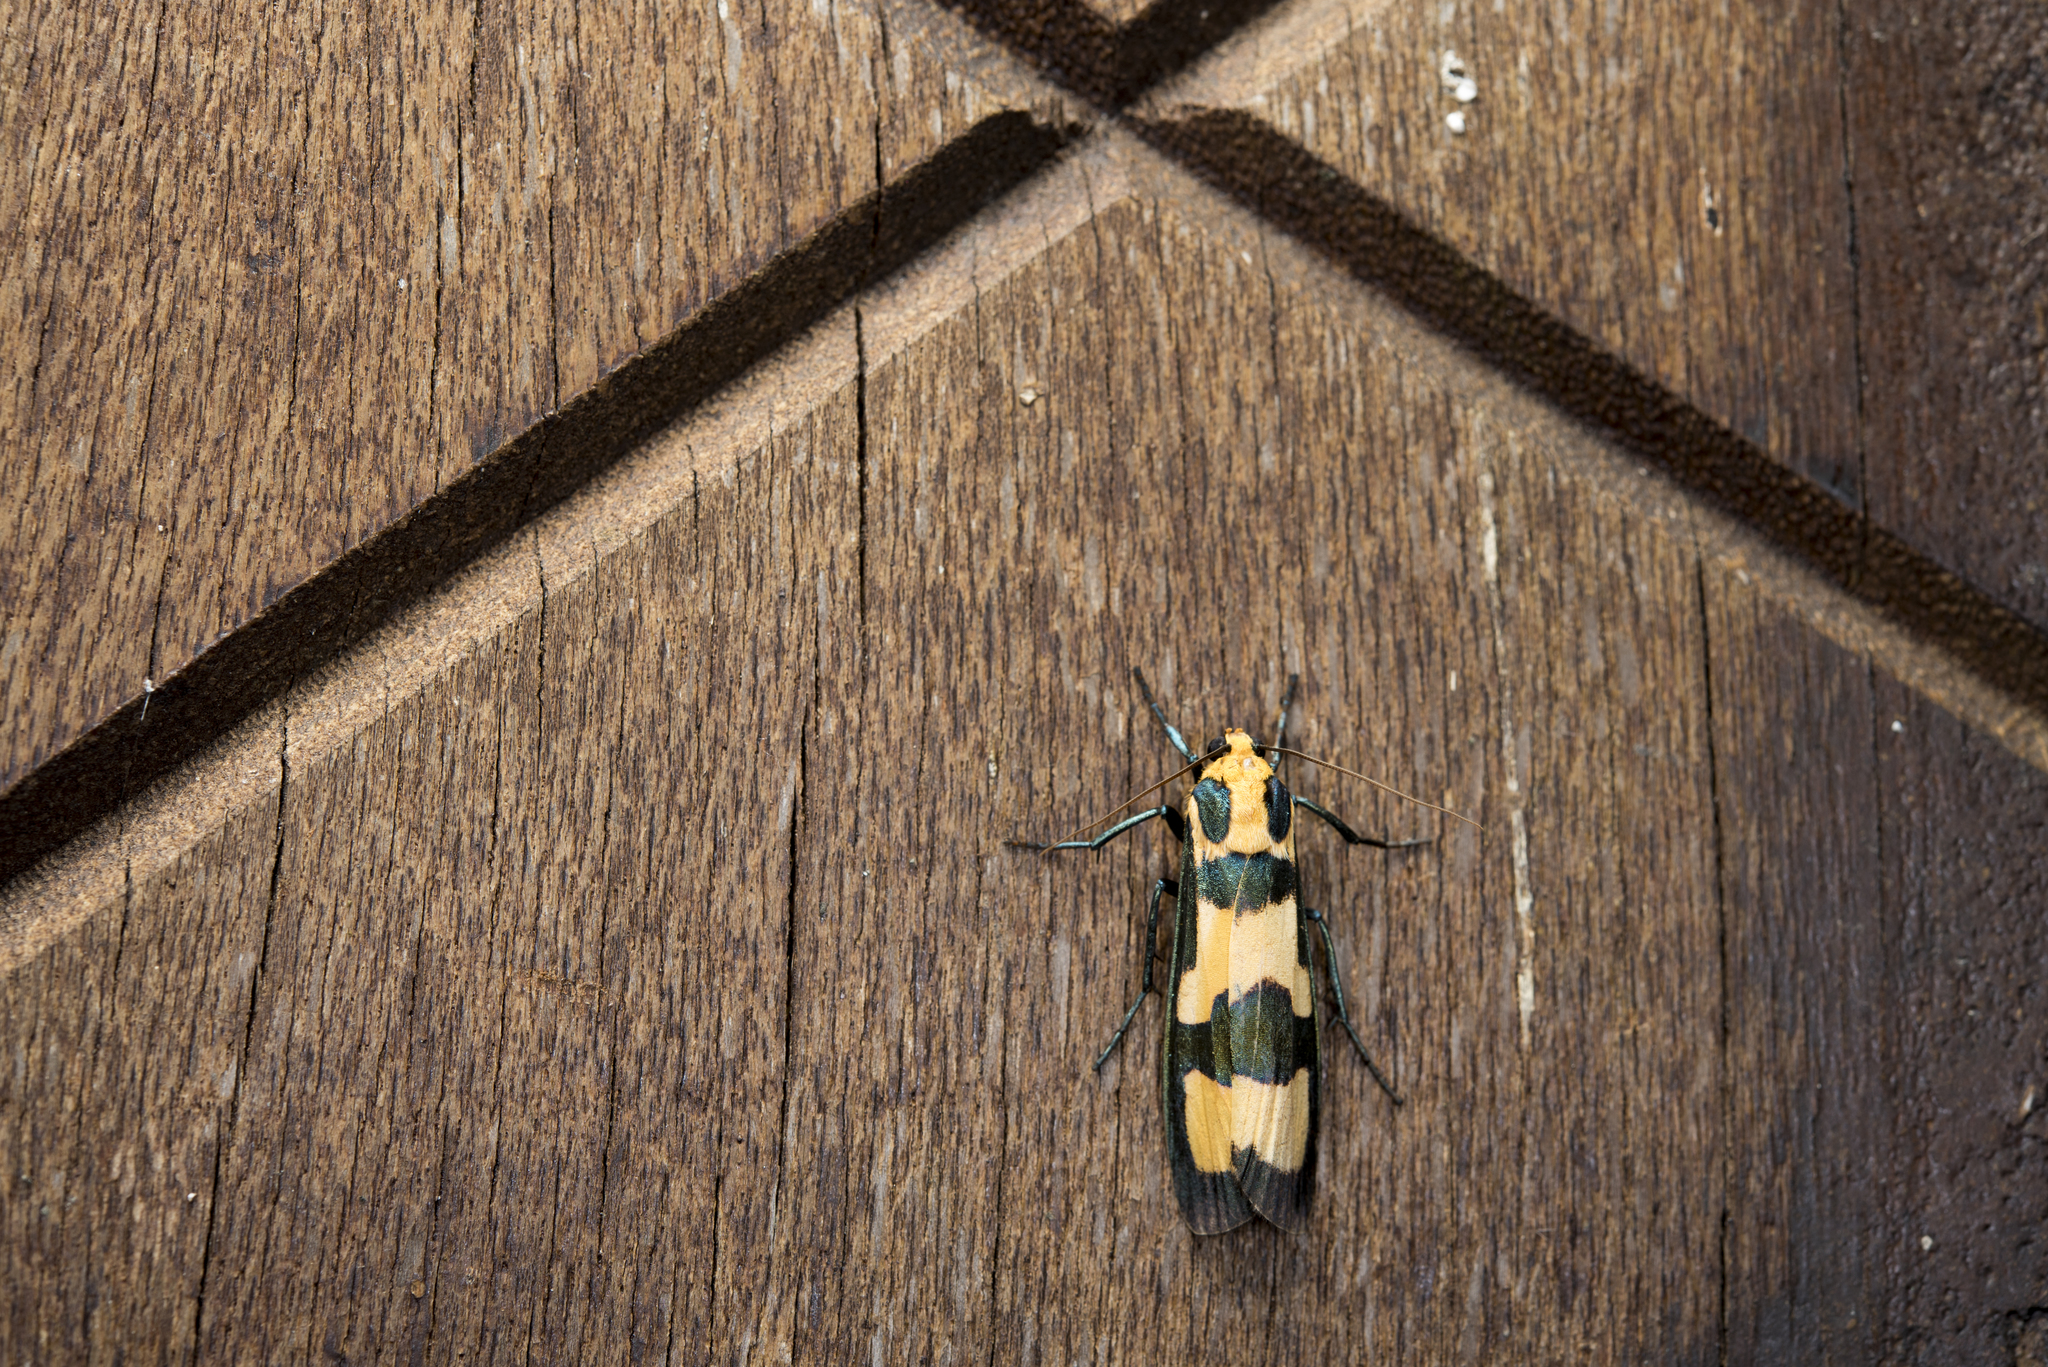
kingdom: Animalia
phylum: Arthropoda
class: Insecta
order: Lepidoptera
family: Erebidae
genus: Chrysaeglia
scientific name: Chrysaeglia magnifica
